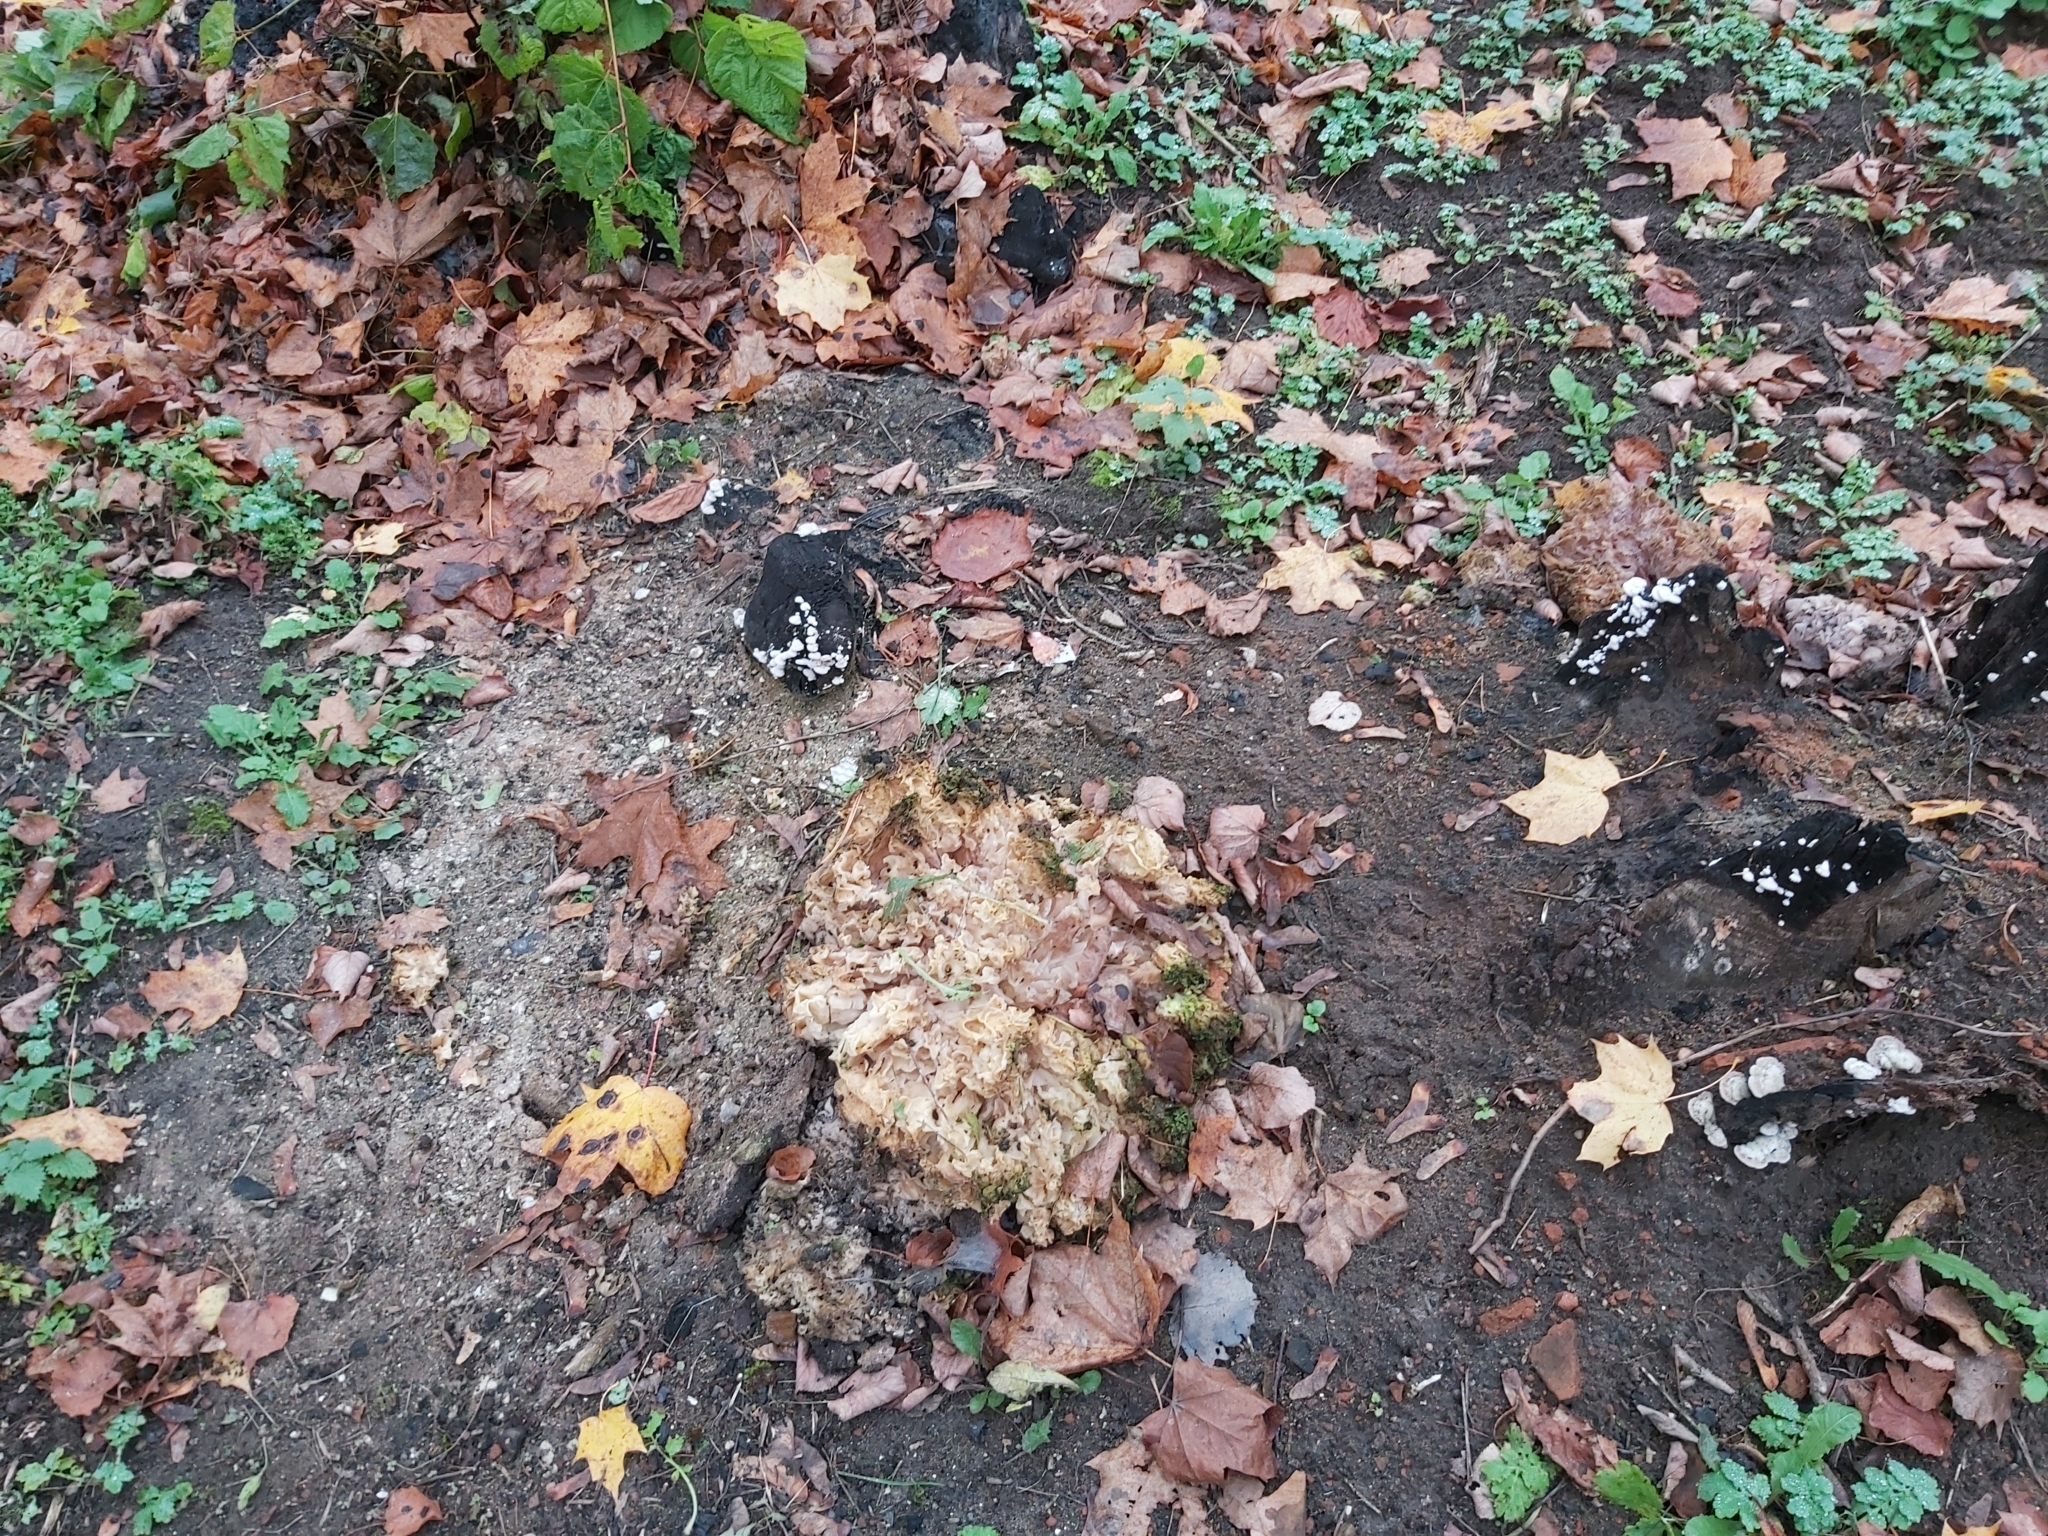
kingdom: Fungi
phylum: Basidiomycota
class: Agaricomycetes
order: Polyporales
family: Sparassidaceae
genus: Sparassis
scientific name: Sparassis crispa
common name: Brain fungus
